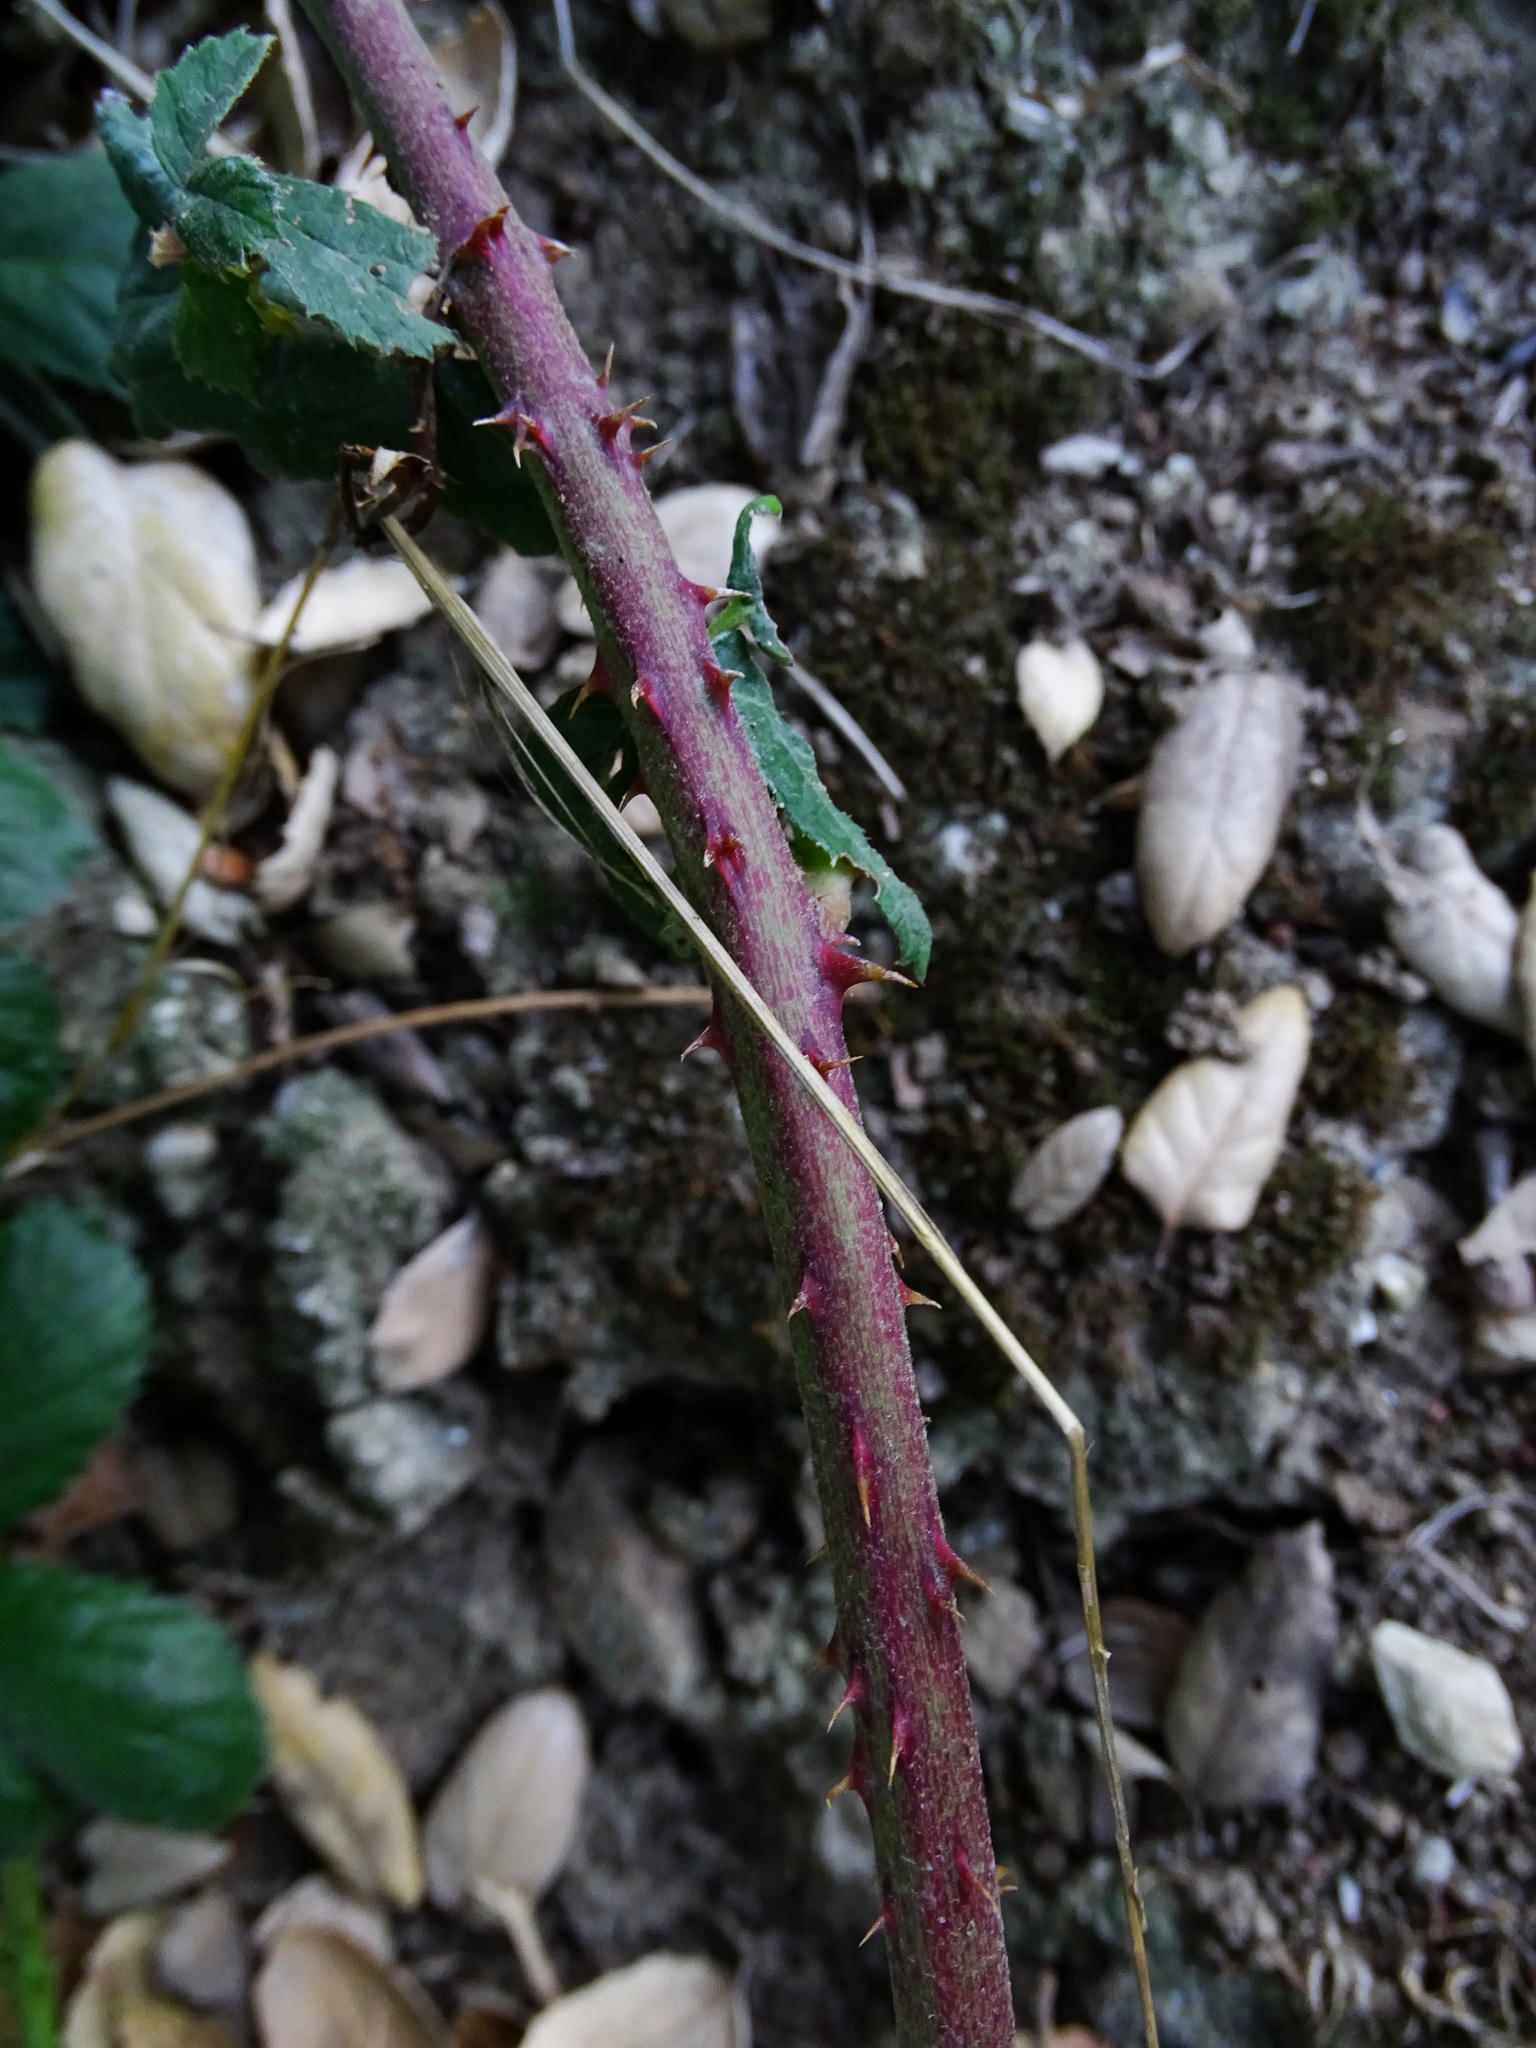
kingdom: Plantae
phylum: Tracheophyta
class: Magnoliopsida
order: Rosales
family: Rosaceae
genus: Rubus
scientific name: Rubus armeniacus
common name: Himalayan blackberry
